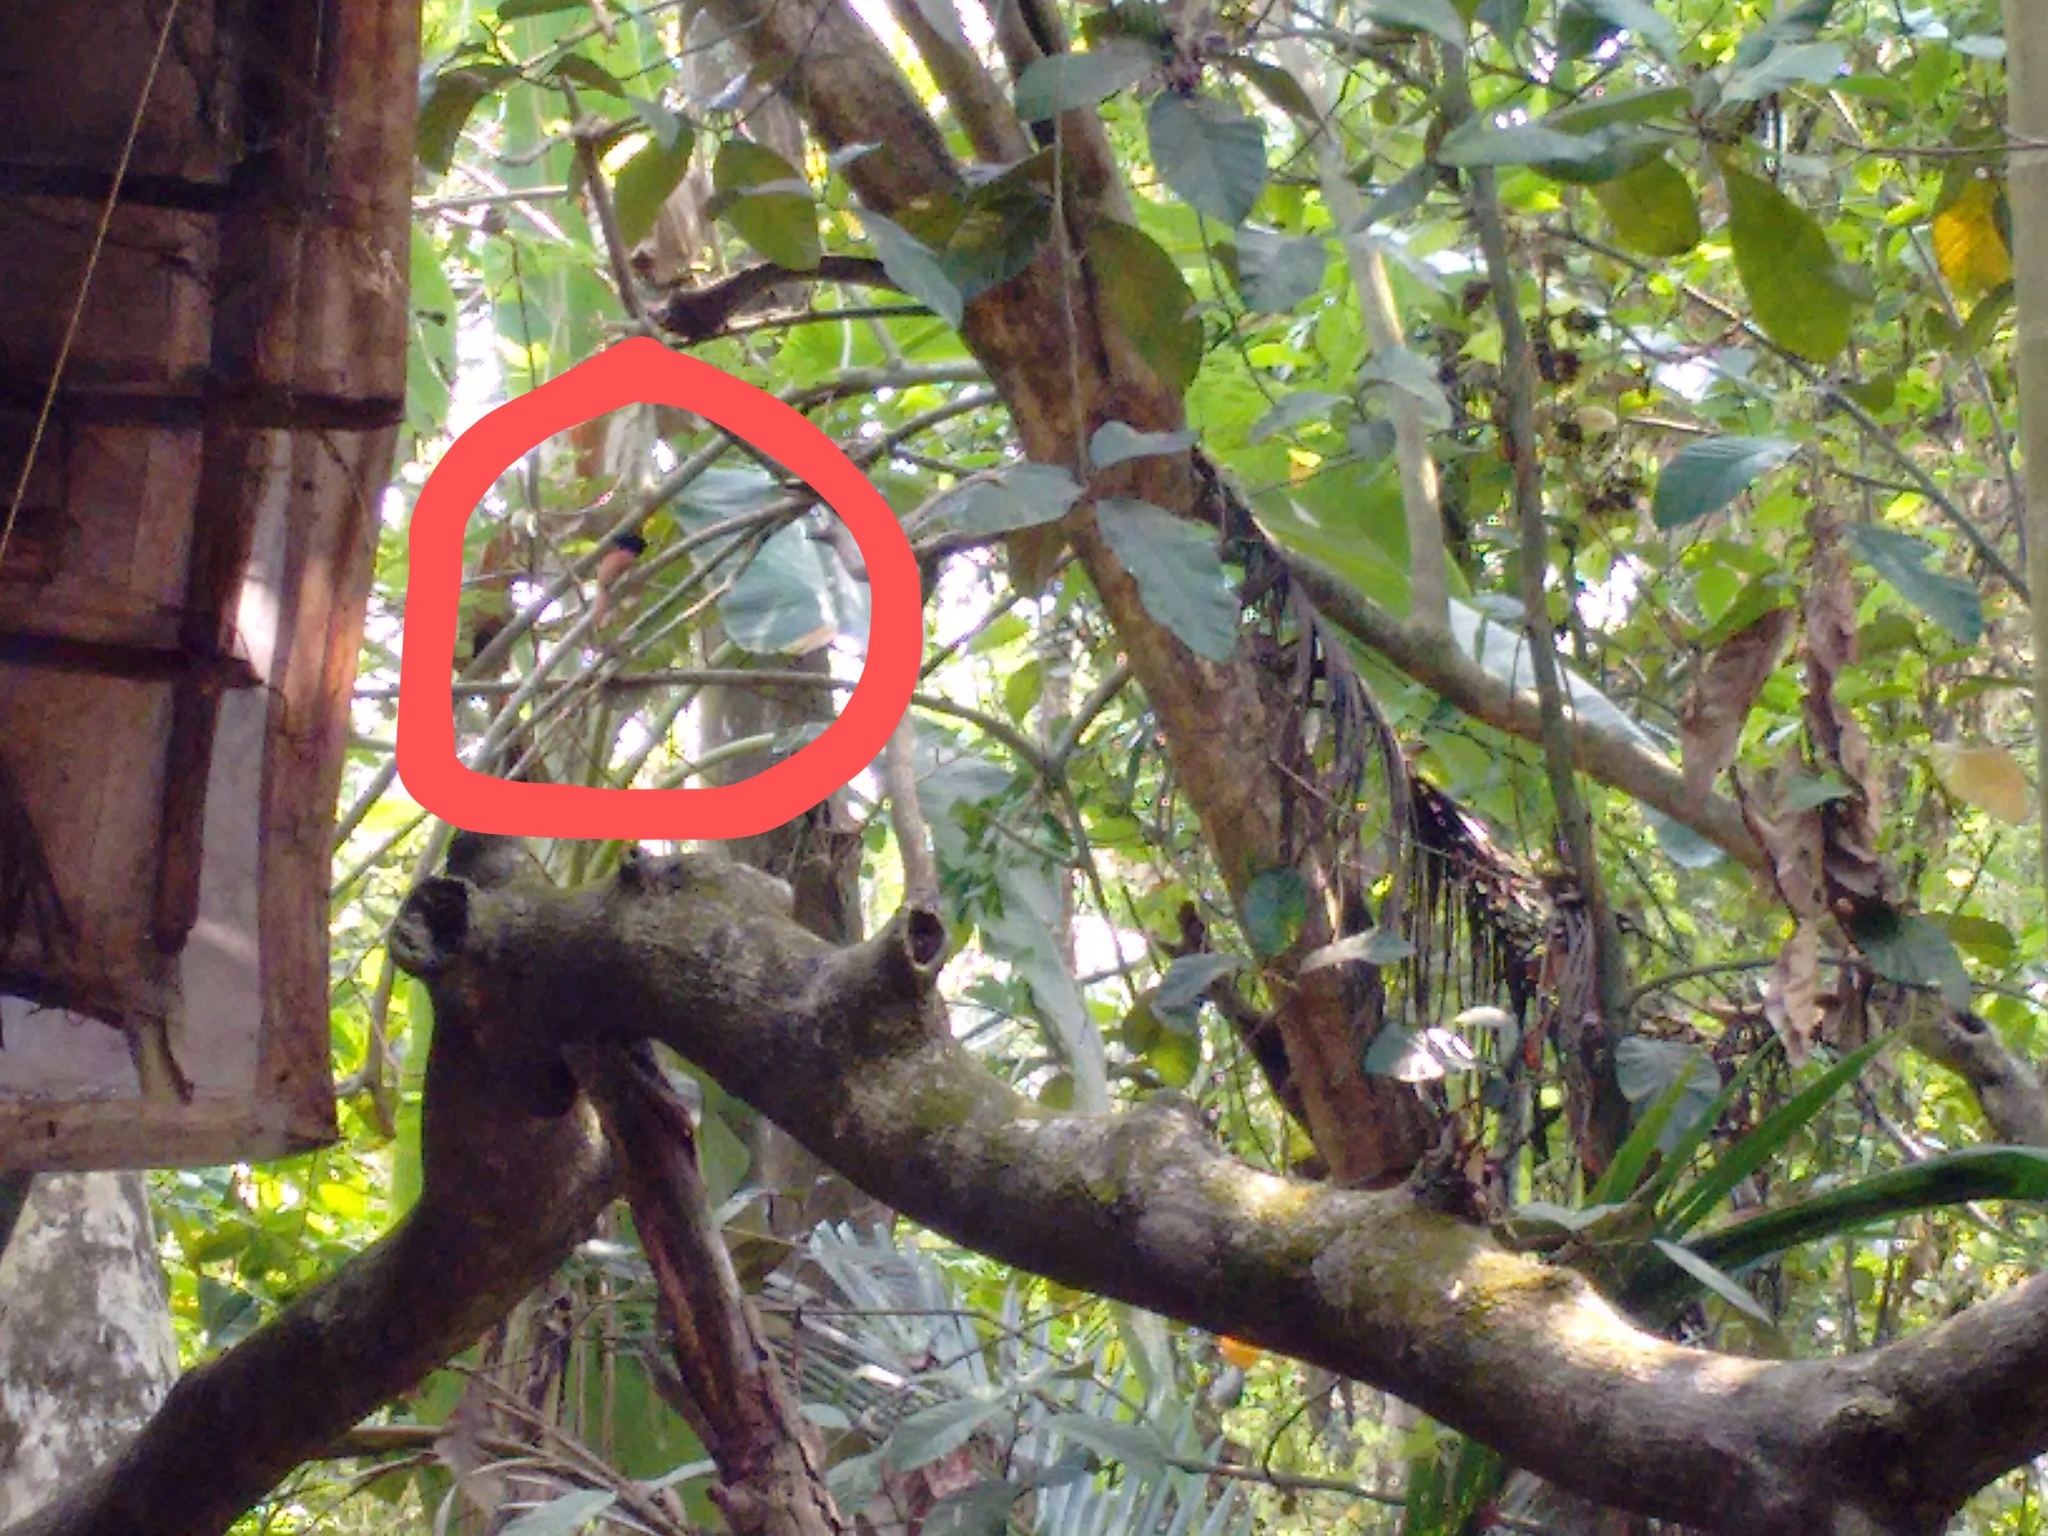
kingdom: Animalia
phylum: Chordata
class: Aves
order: Passeriformes
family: Monarchidae
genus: Terpsiphone
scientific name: Terpsiphone paradisi
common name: Indian paradise flycatcher
